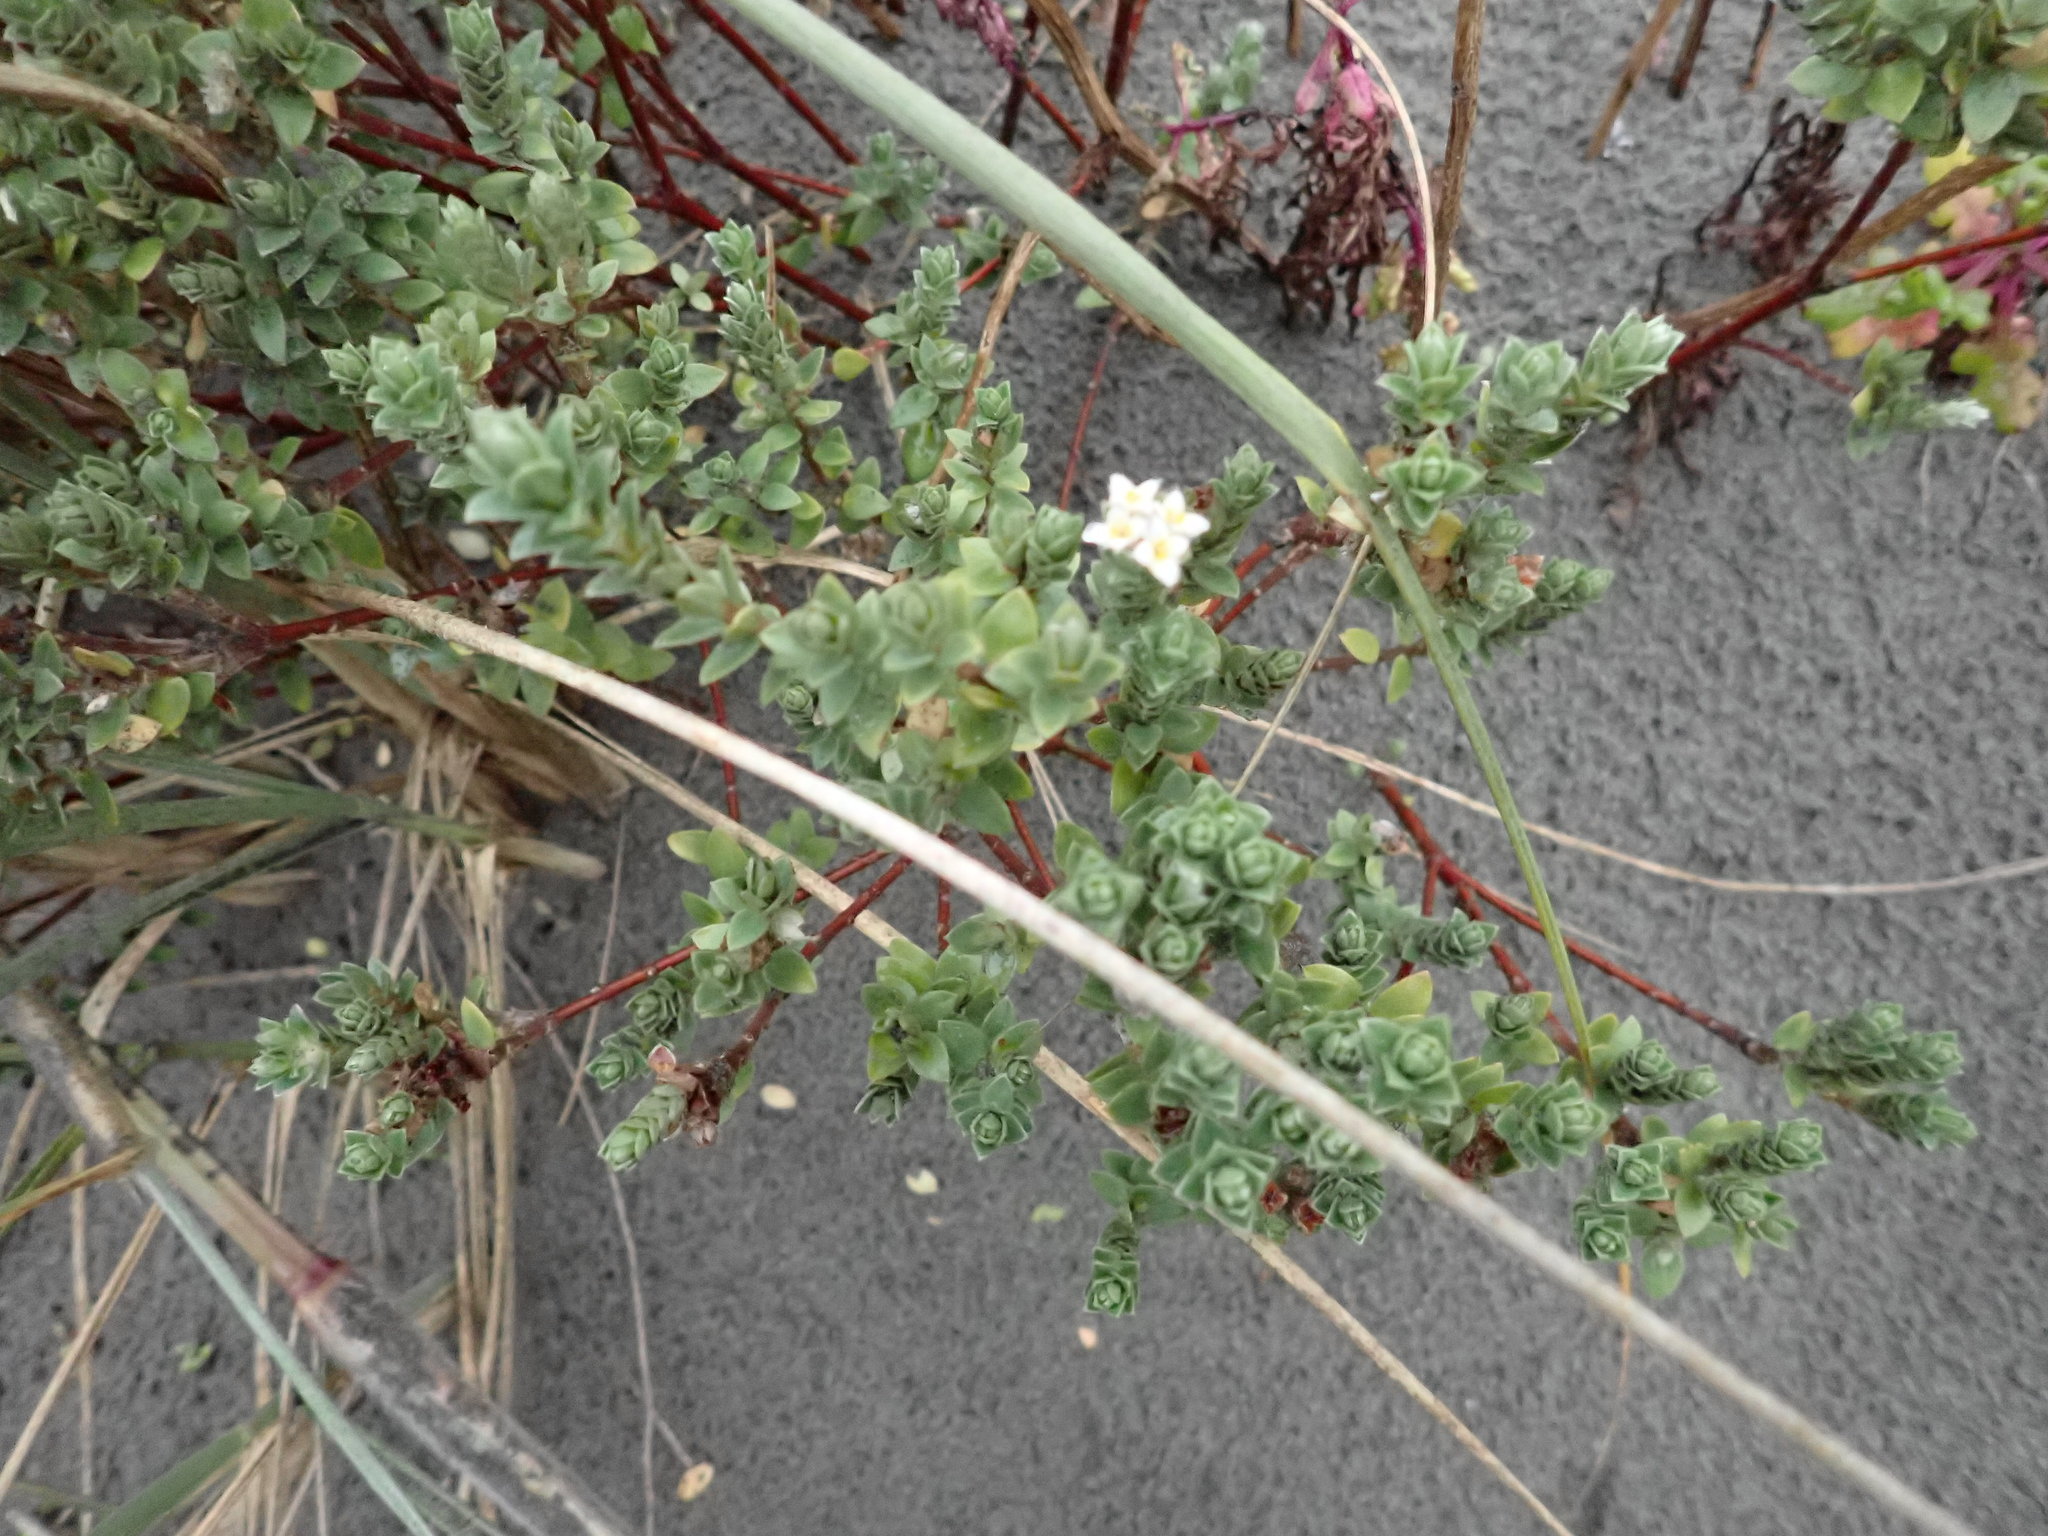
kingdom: Plantae
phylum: Tracheophyta
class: Magnoliopsida
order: Malvales
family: Thymelaeaceae
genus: Pimelea
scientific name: Pimelea villosa
